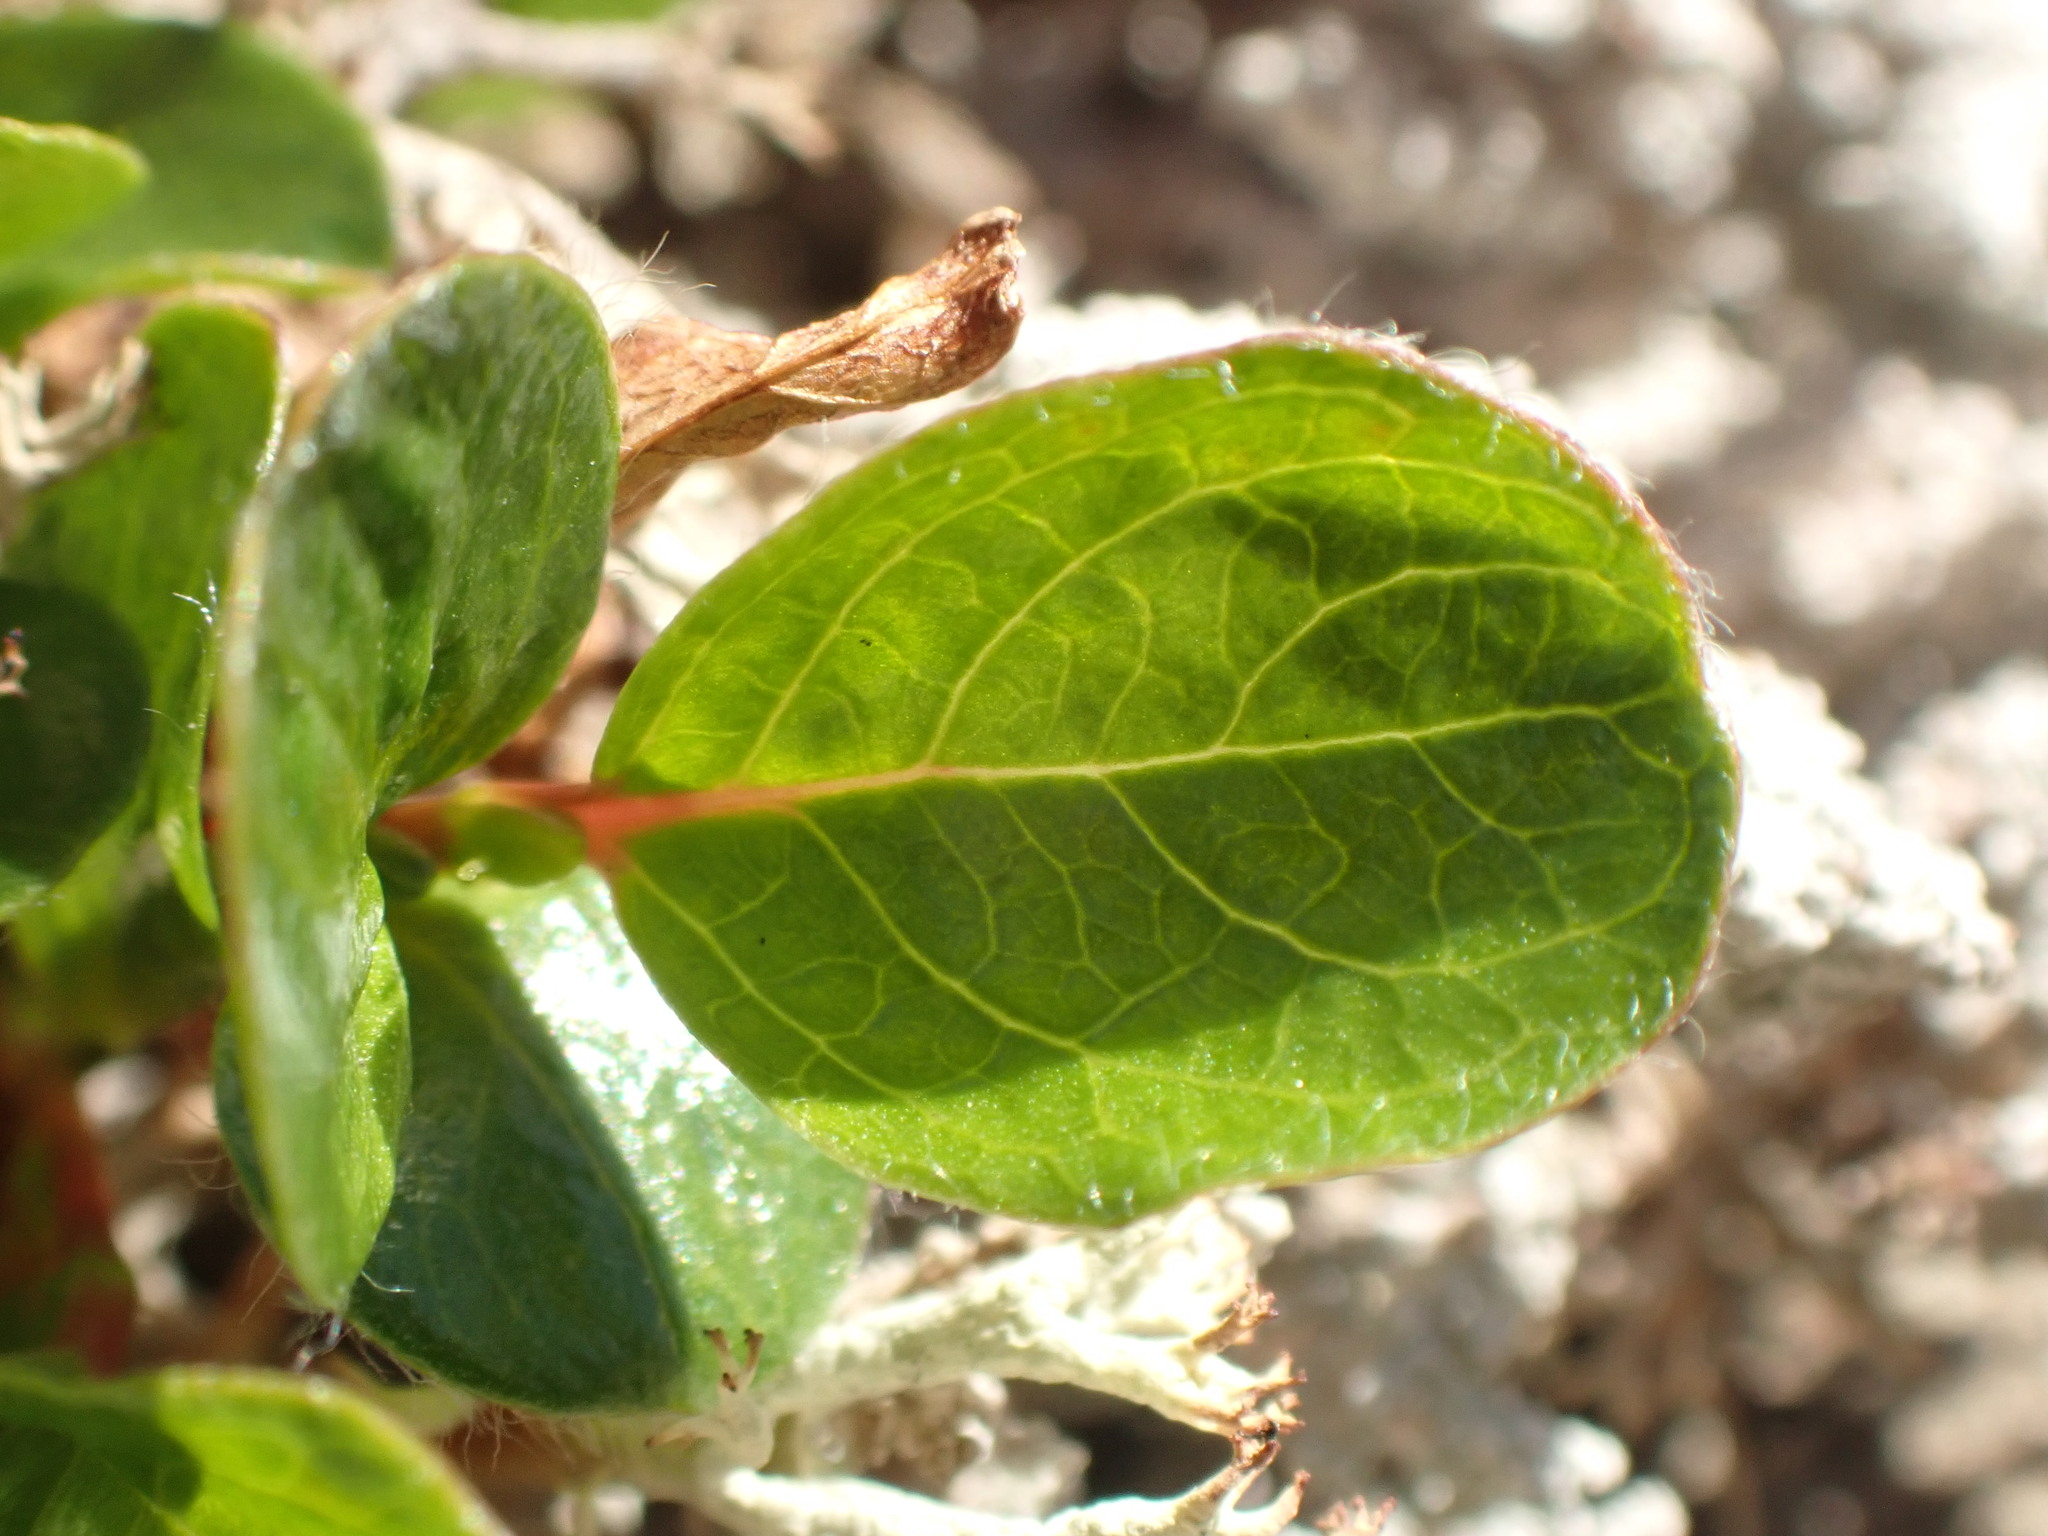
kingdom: Plantae
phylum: Tracheophyta
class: Magnoliopsida
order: Malpighiales
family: Salicaceae
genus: Salix
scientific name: Salix rotundifolia
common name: Least willow
